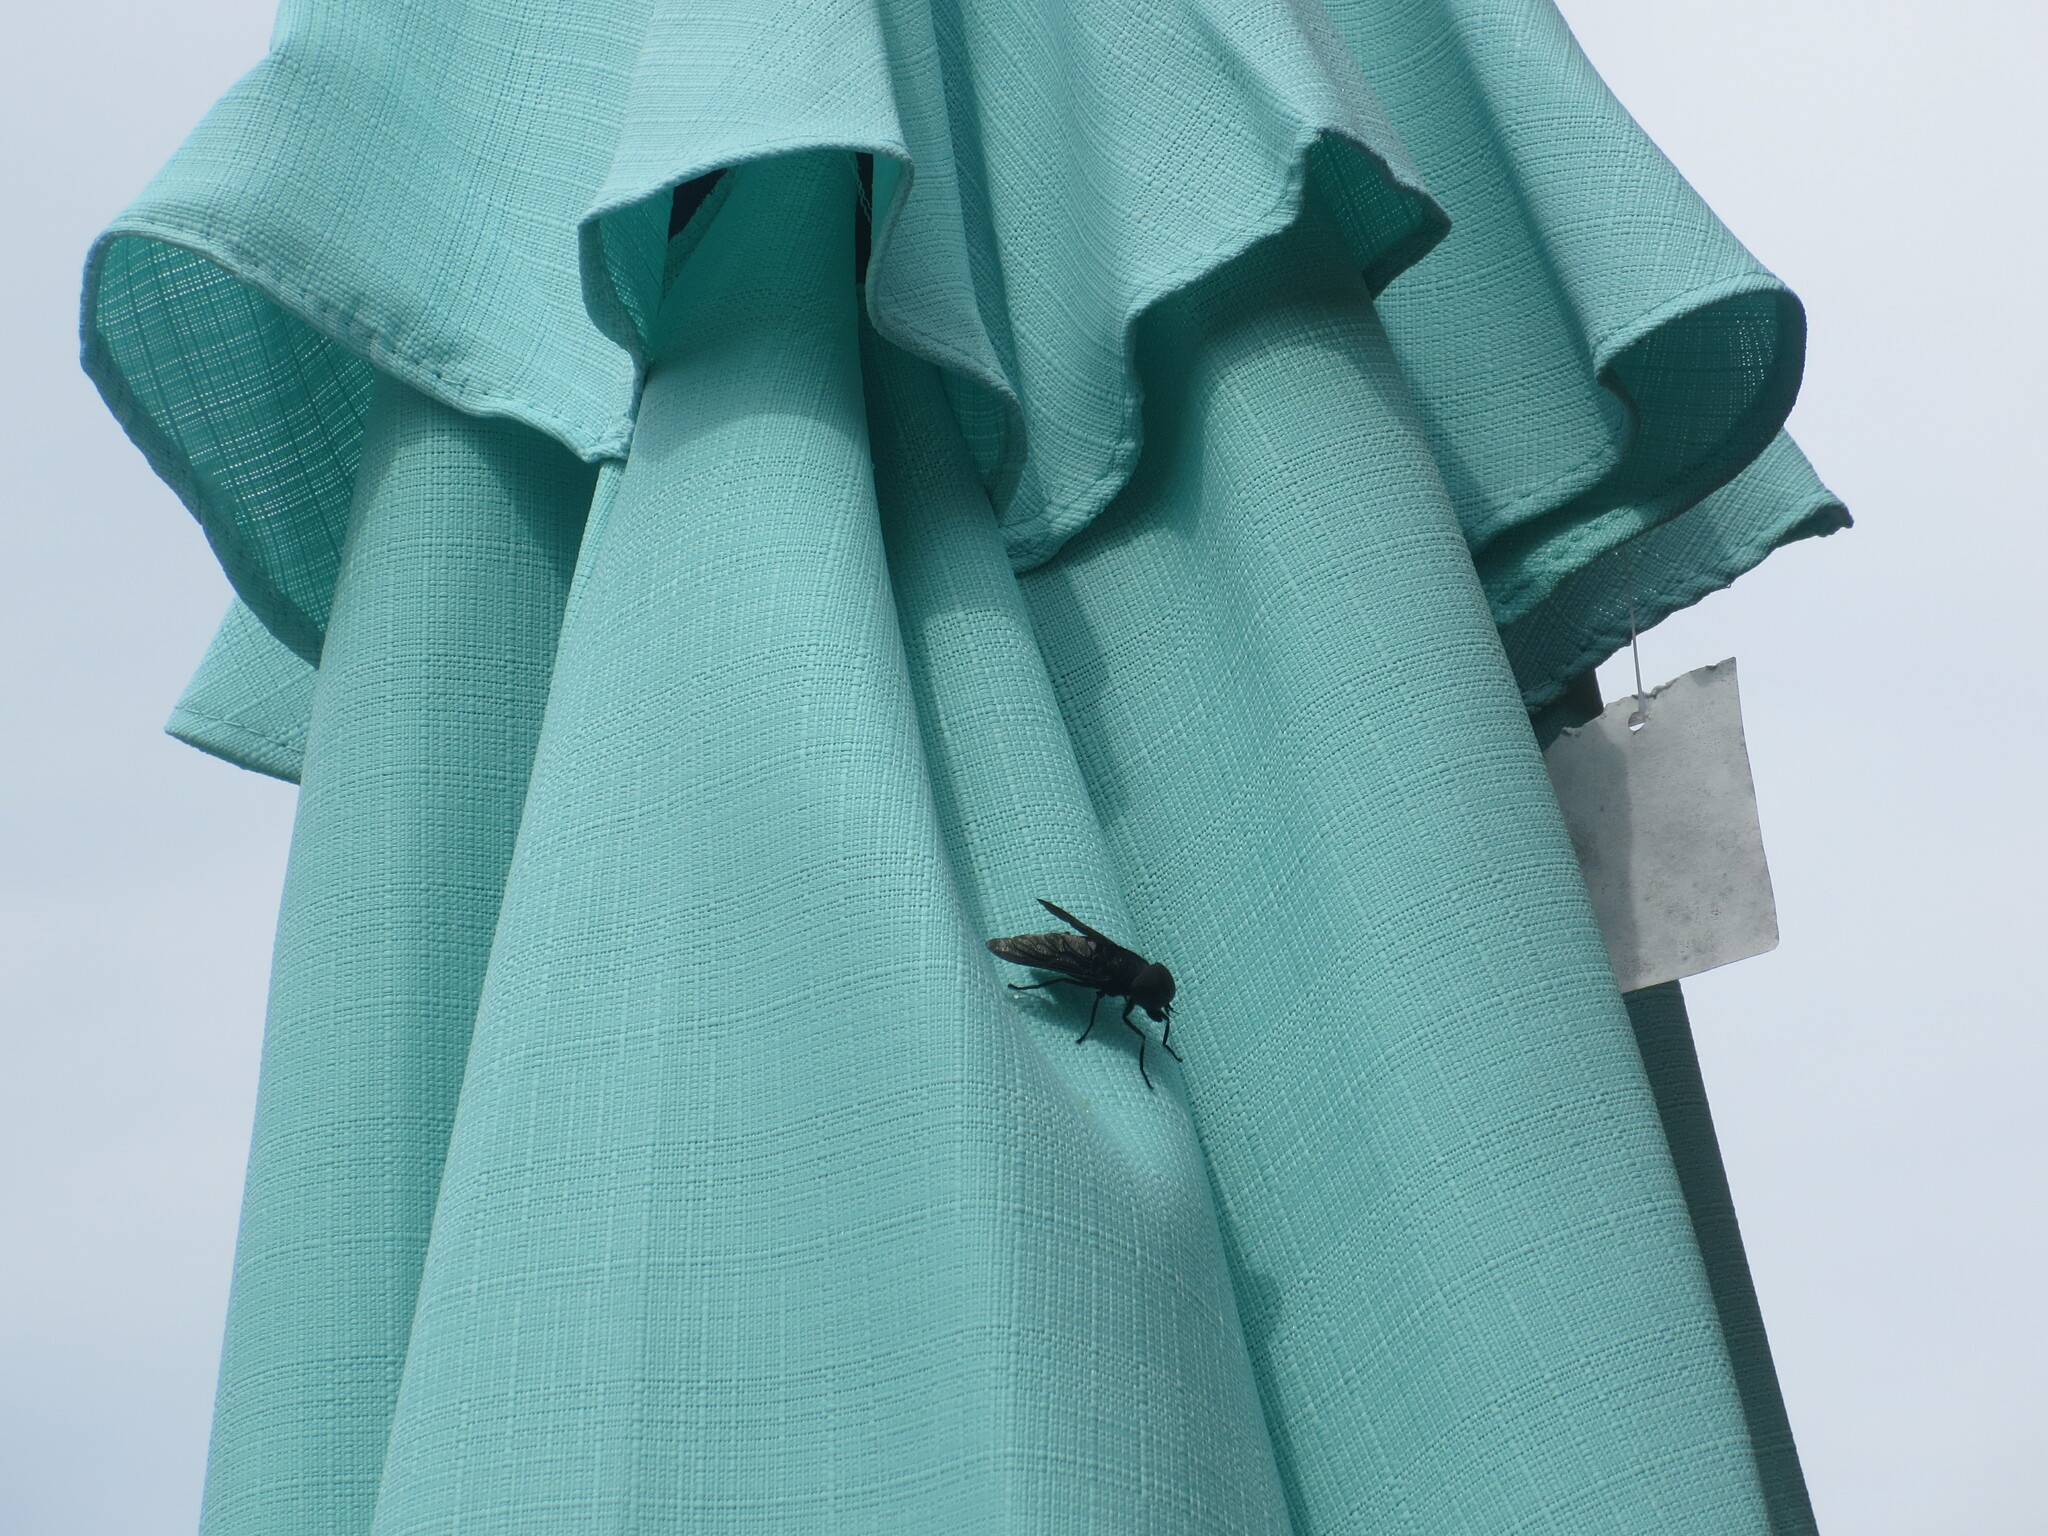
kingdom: Animalia
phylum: Arthropoda
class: Insecta
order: Diptera
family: Tabanidae
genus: Tabanus
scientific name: Tabanus atratus
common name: Black horse fly
